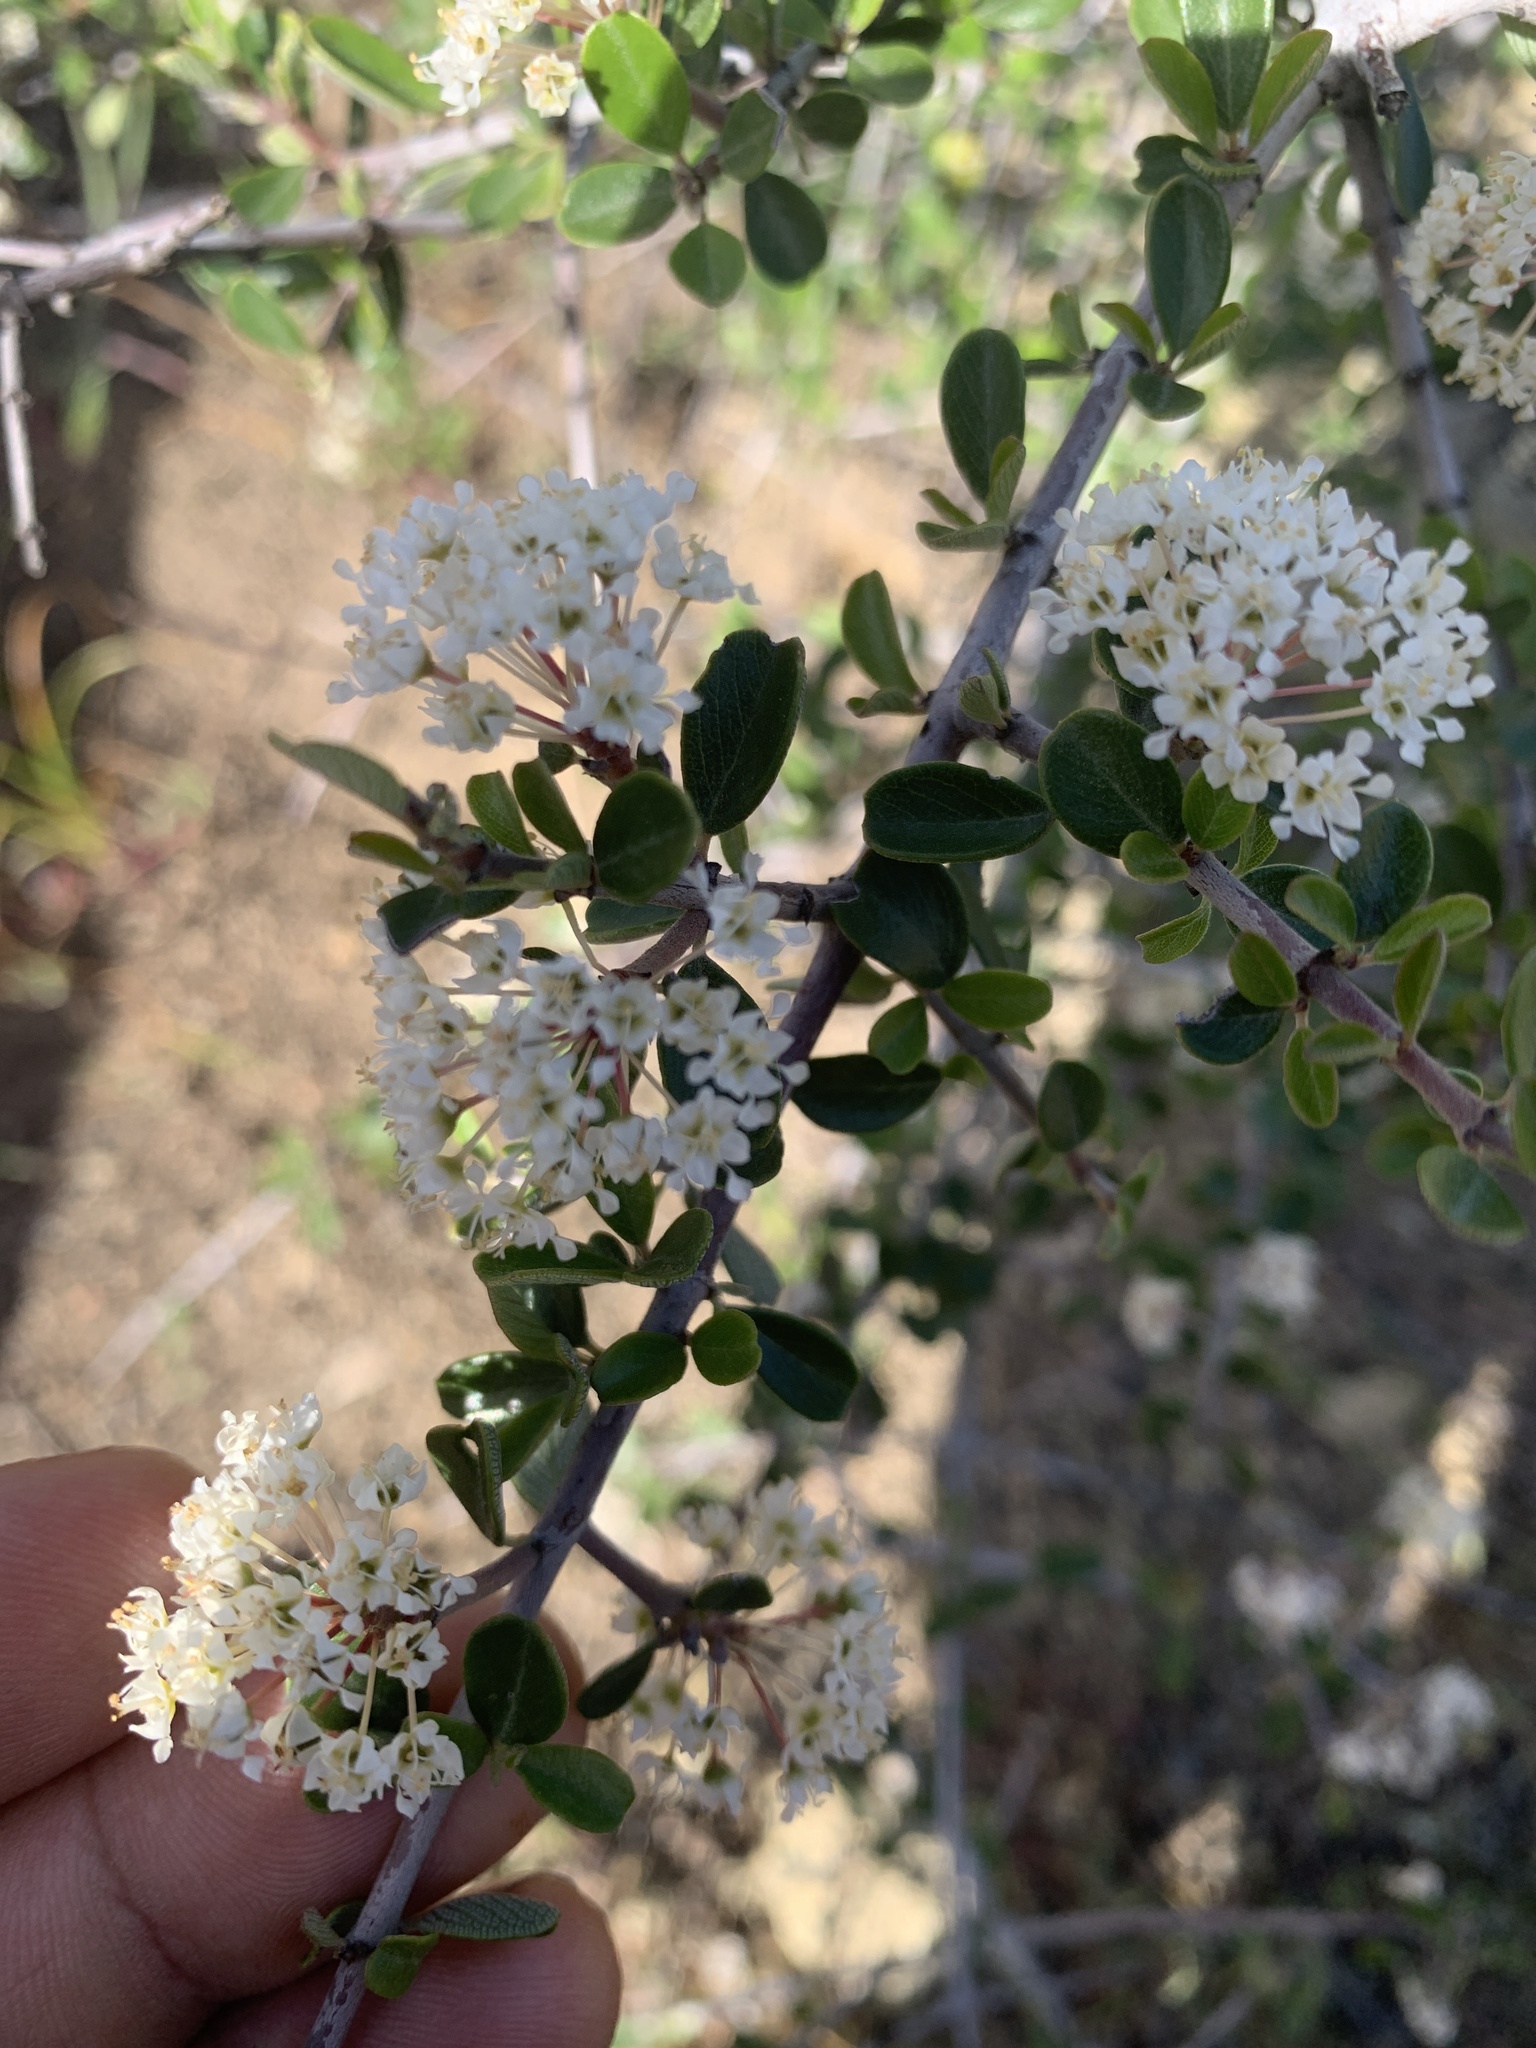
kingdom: Plantae
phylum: Tracheophyta
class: Magnoliopsida
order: Rosales
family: Rhamnaceae
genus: Ceanothus
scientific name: Ceanothus cuneatus
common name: Cuneate ceanothus
